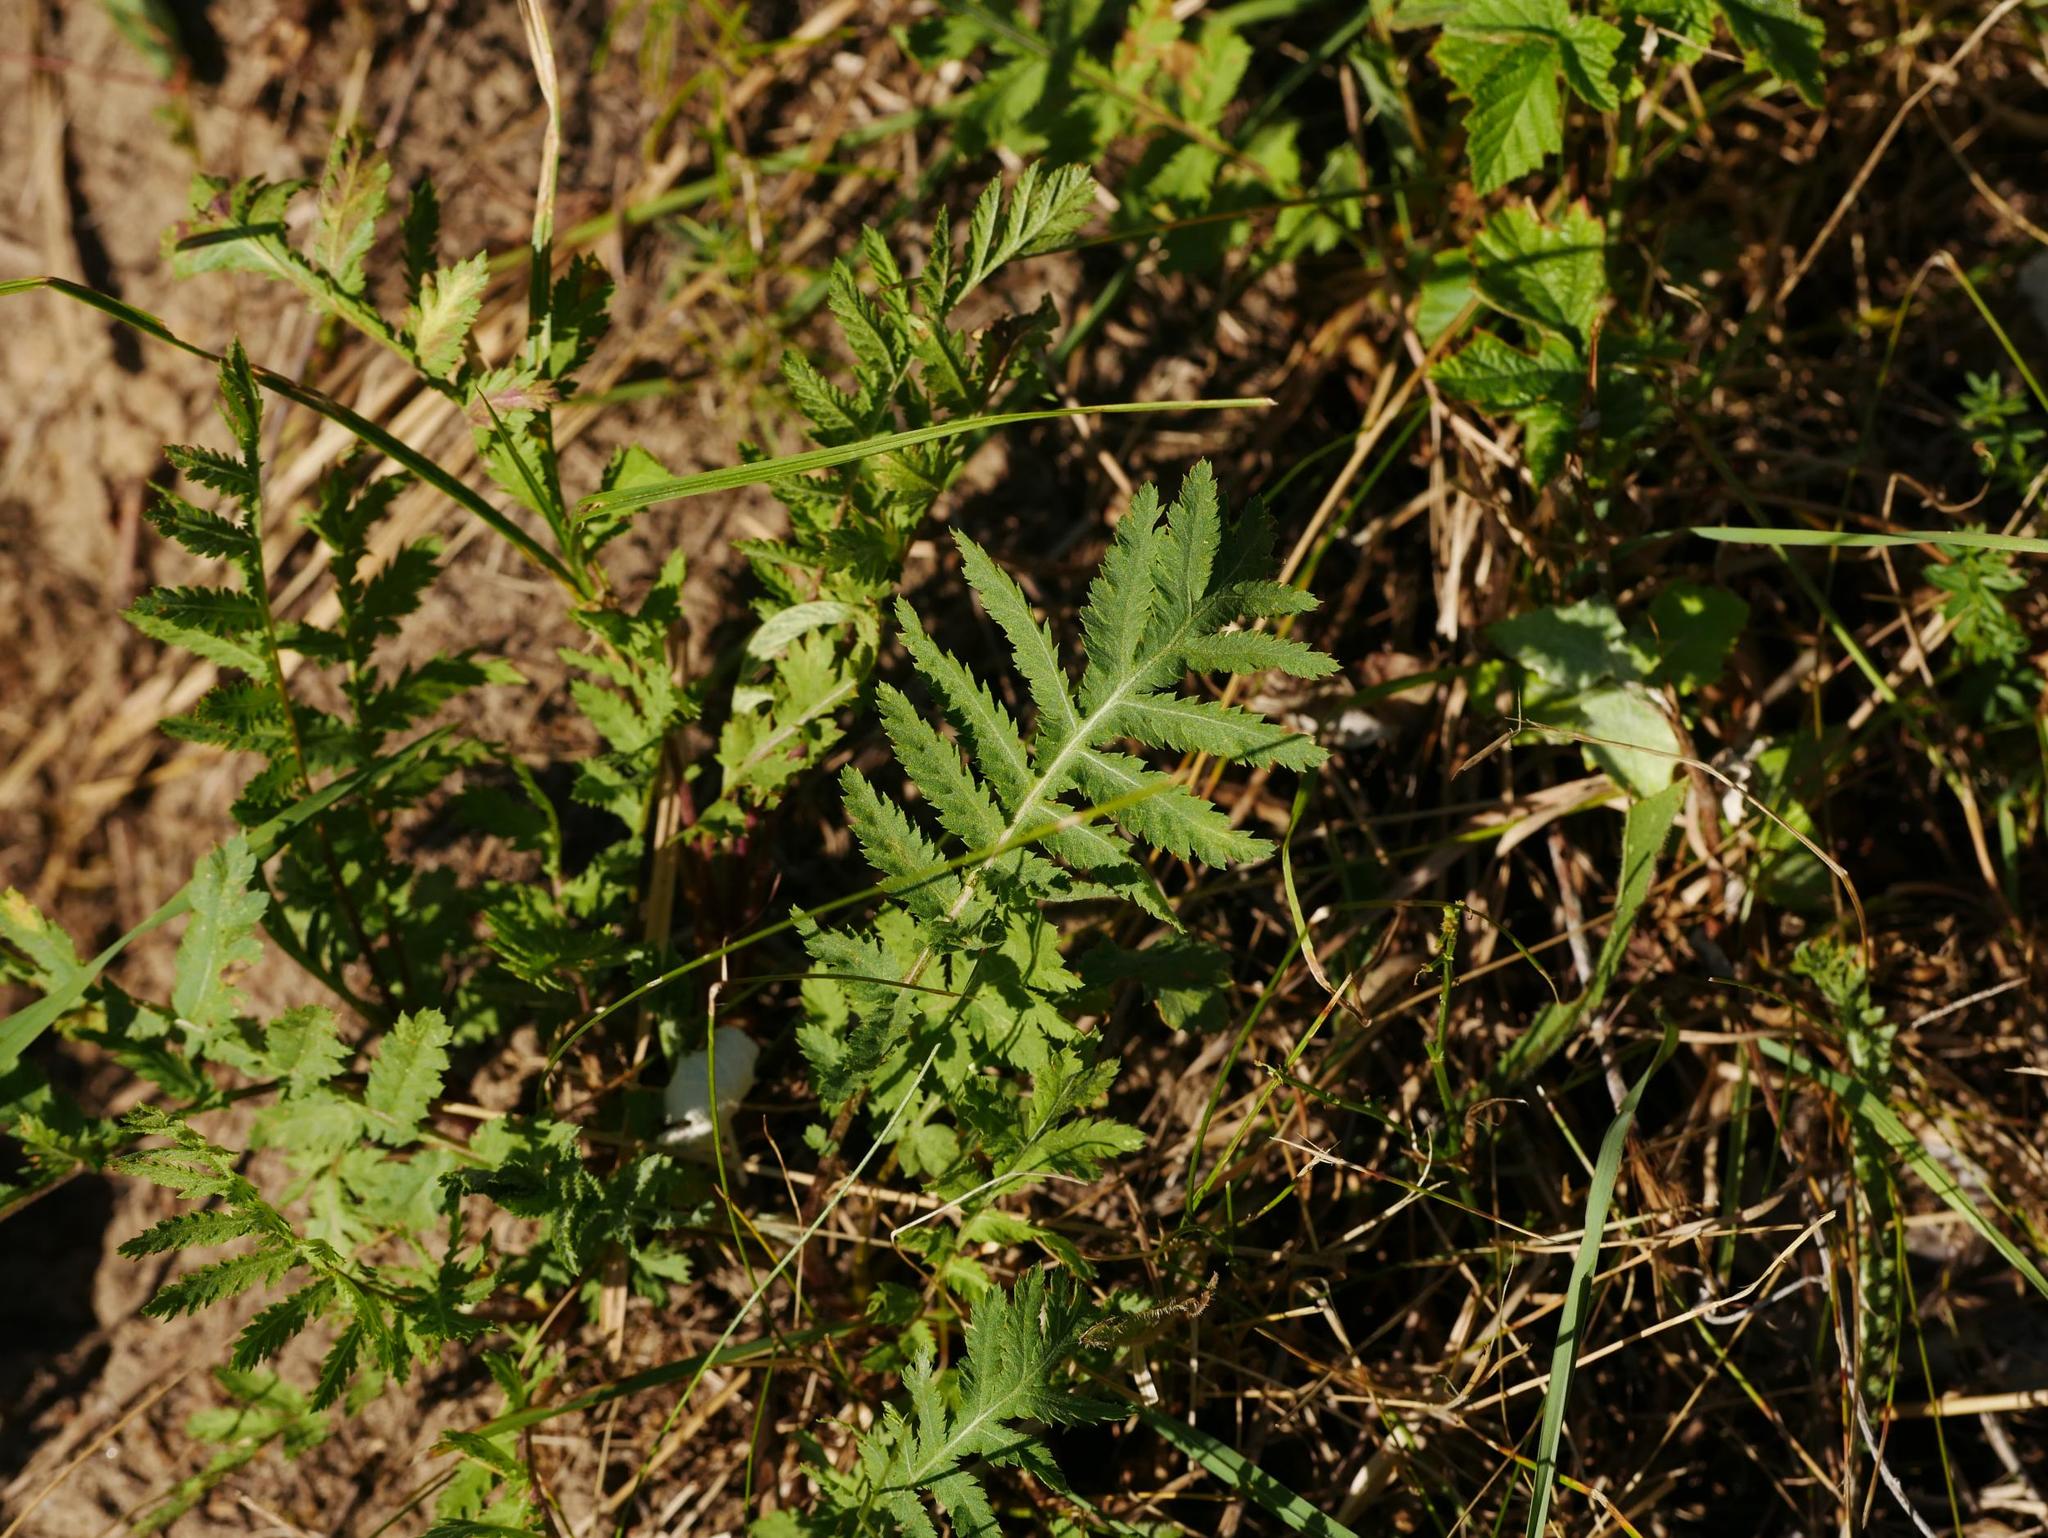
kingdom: Plantae
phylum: Tracheophyta
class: Magnoliopsida
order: Asterales
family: Asteraceae
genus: Tanacetum
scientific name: Tanacetum vulgare
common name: Common tansy
